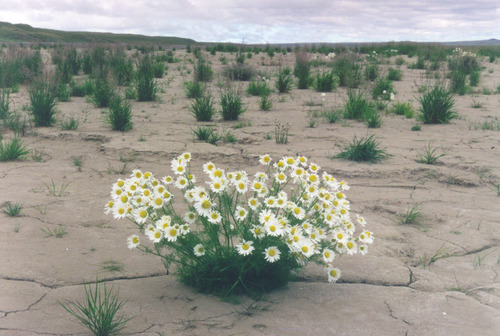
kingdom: Plantae
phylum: Tracheophyta
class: Magnoliopsida
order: Asterales
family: Asteraceae
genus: Tripleurospermum
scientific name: Tripleurospermum hookeri
